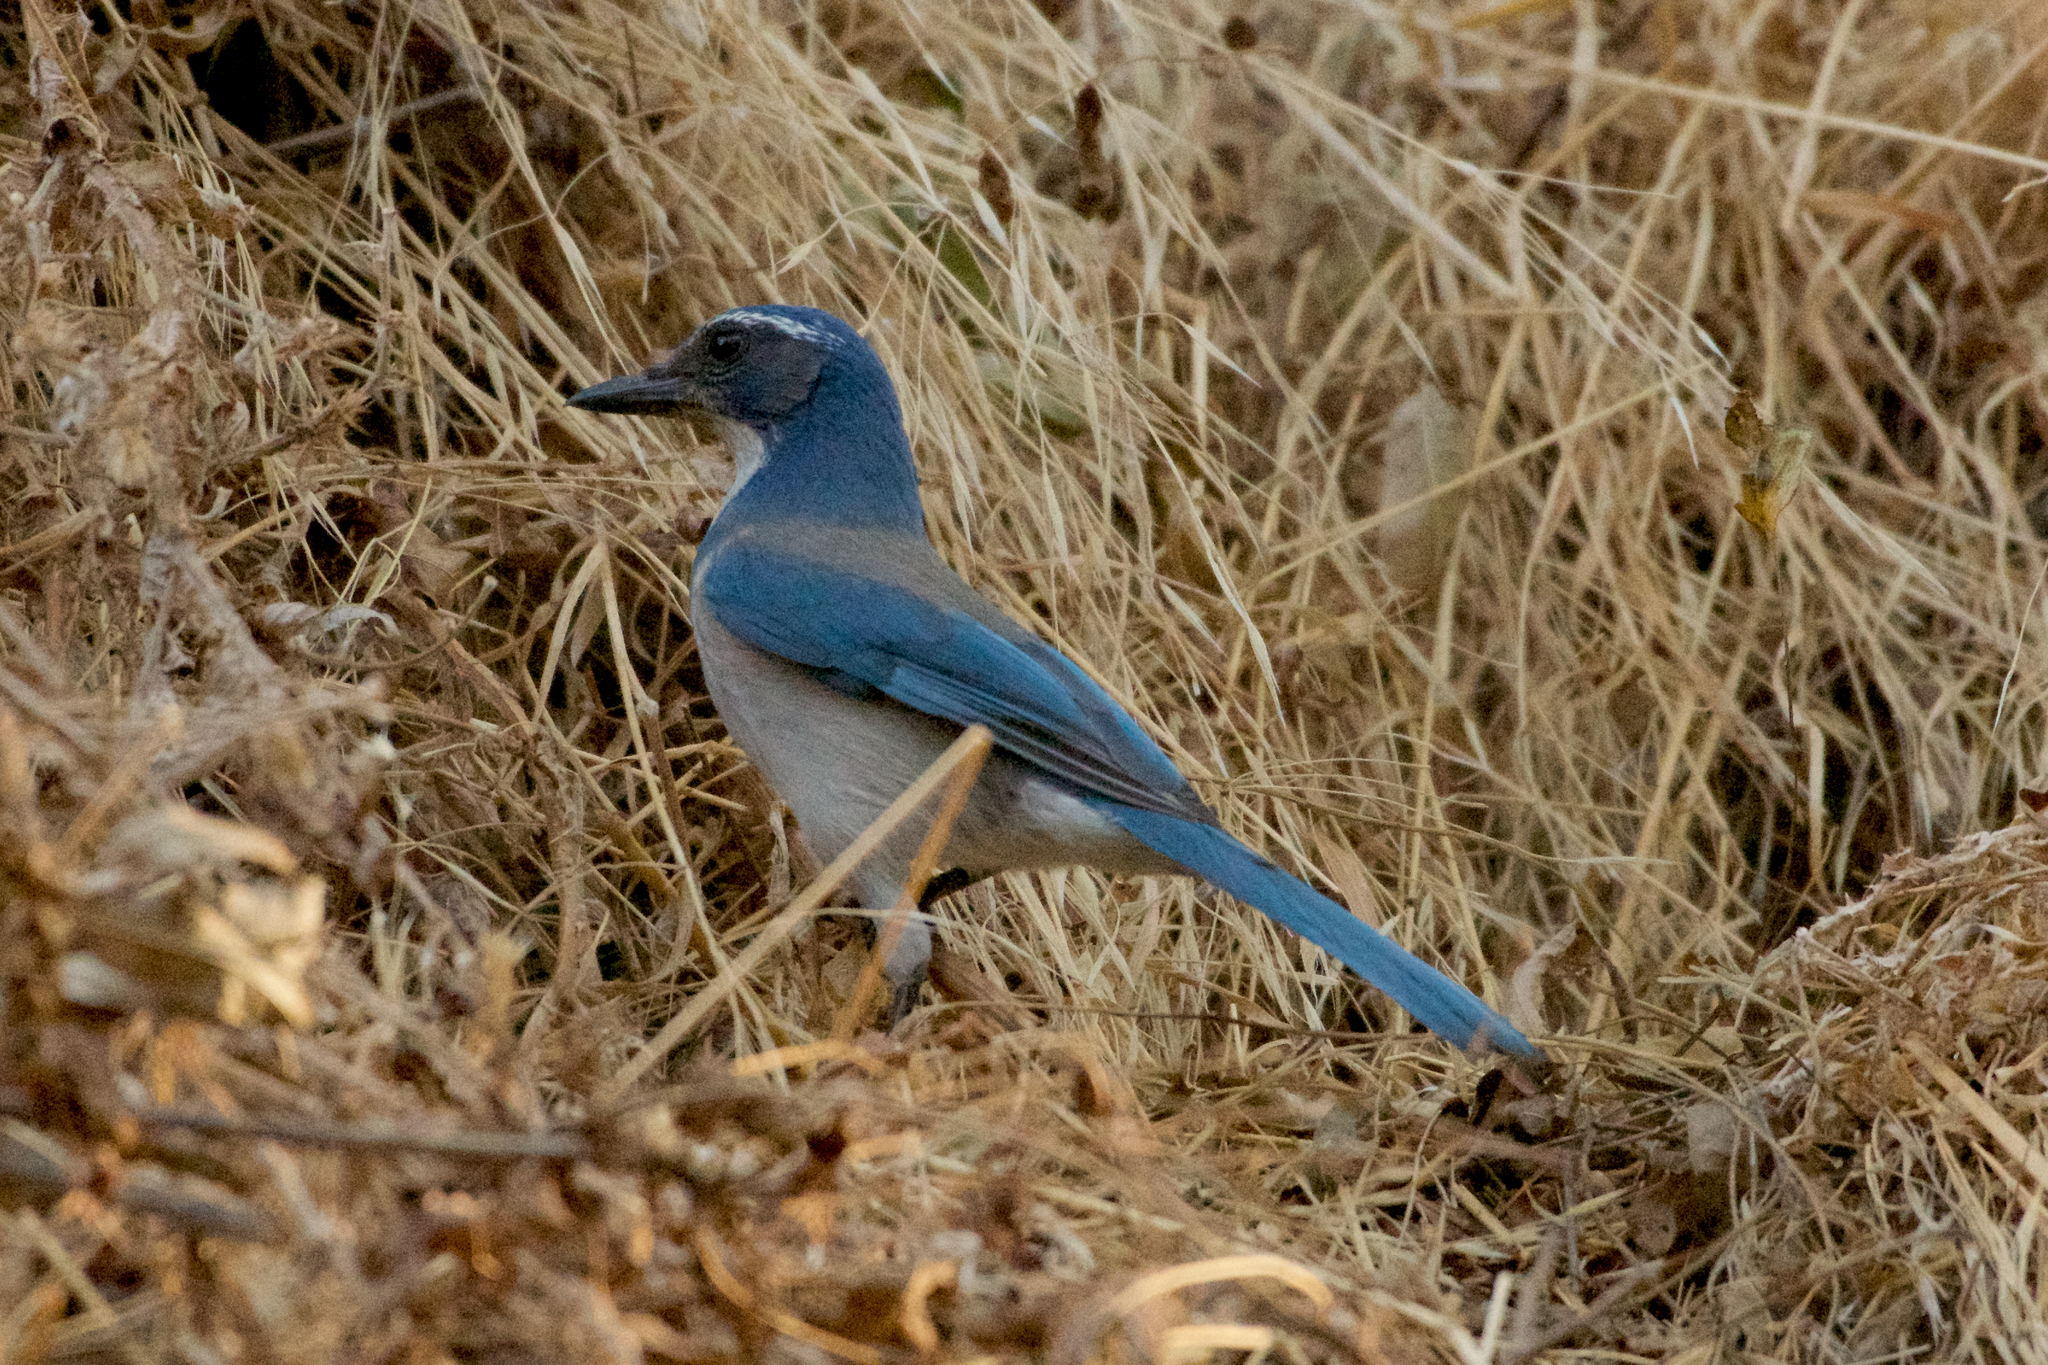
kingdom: Animalia
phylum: Chordata
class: Aves
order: Passeriformes
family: Corvidae
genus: Aphelocoma
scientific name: Aphelocoma californica
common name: California scrub-jay
